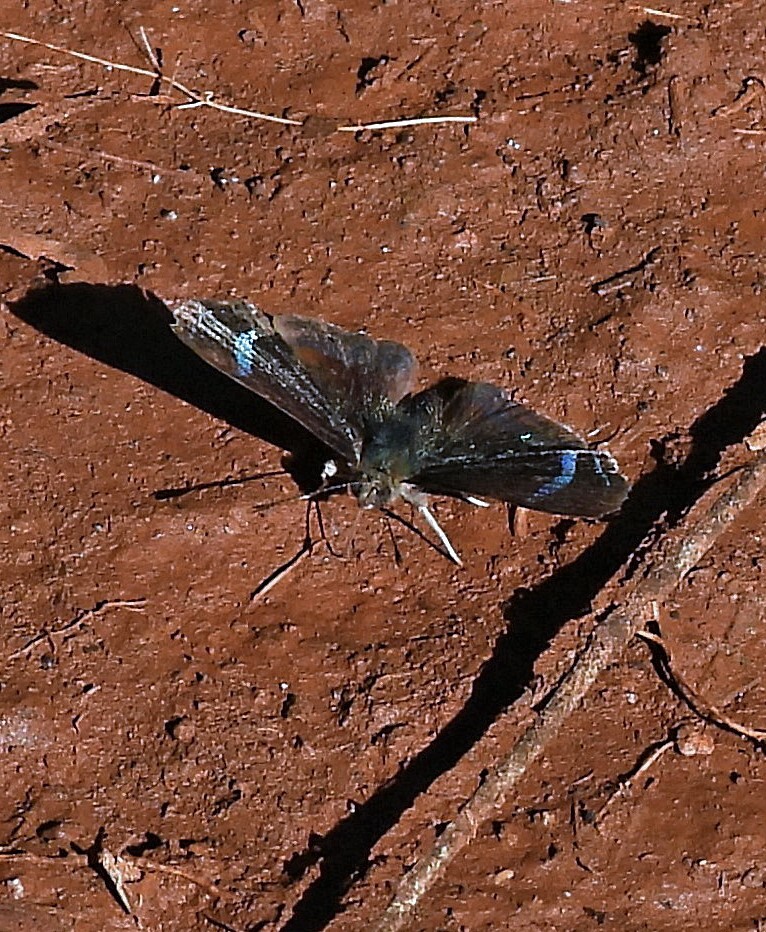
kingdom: Animalia
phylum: Arthropoda
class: Insecta
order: Lepidoptera
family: Riodinidae
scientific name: Riodinidae
